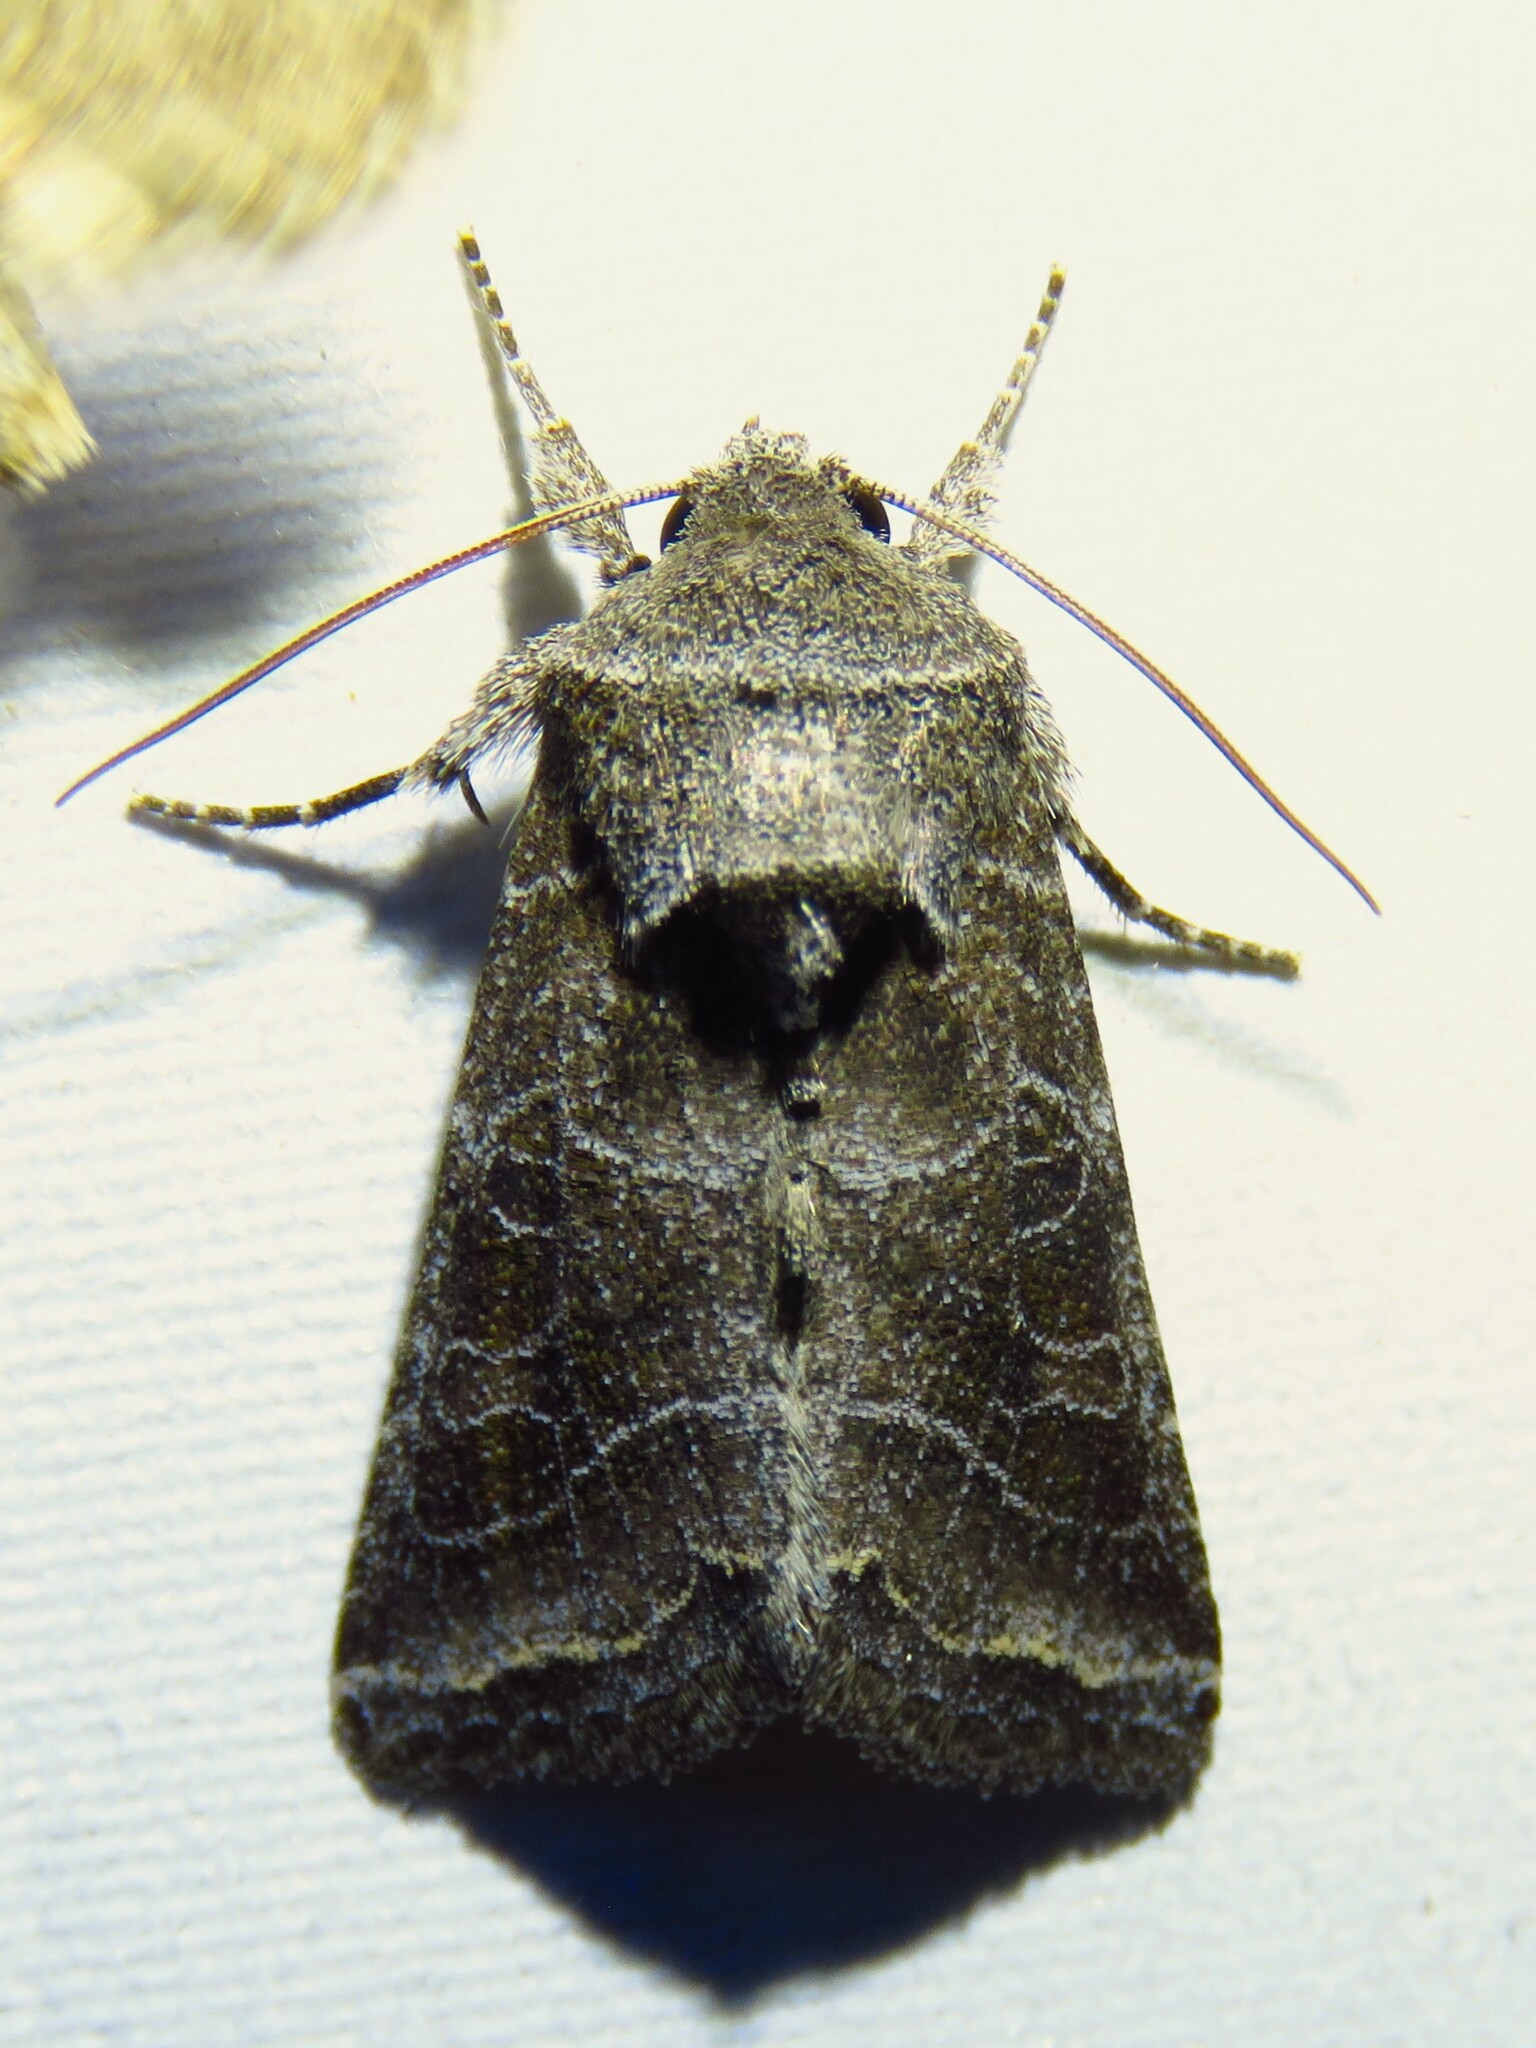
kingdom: Animalia
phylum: Arthropoda
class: Insecta
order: Lepidoptera
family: Noctuidae
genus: Lacinipolia
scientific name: Lacinipolia erecta
